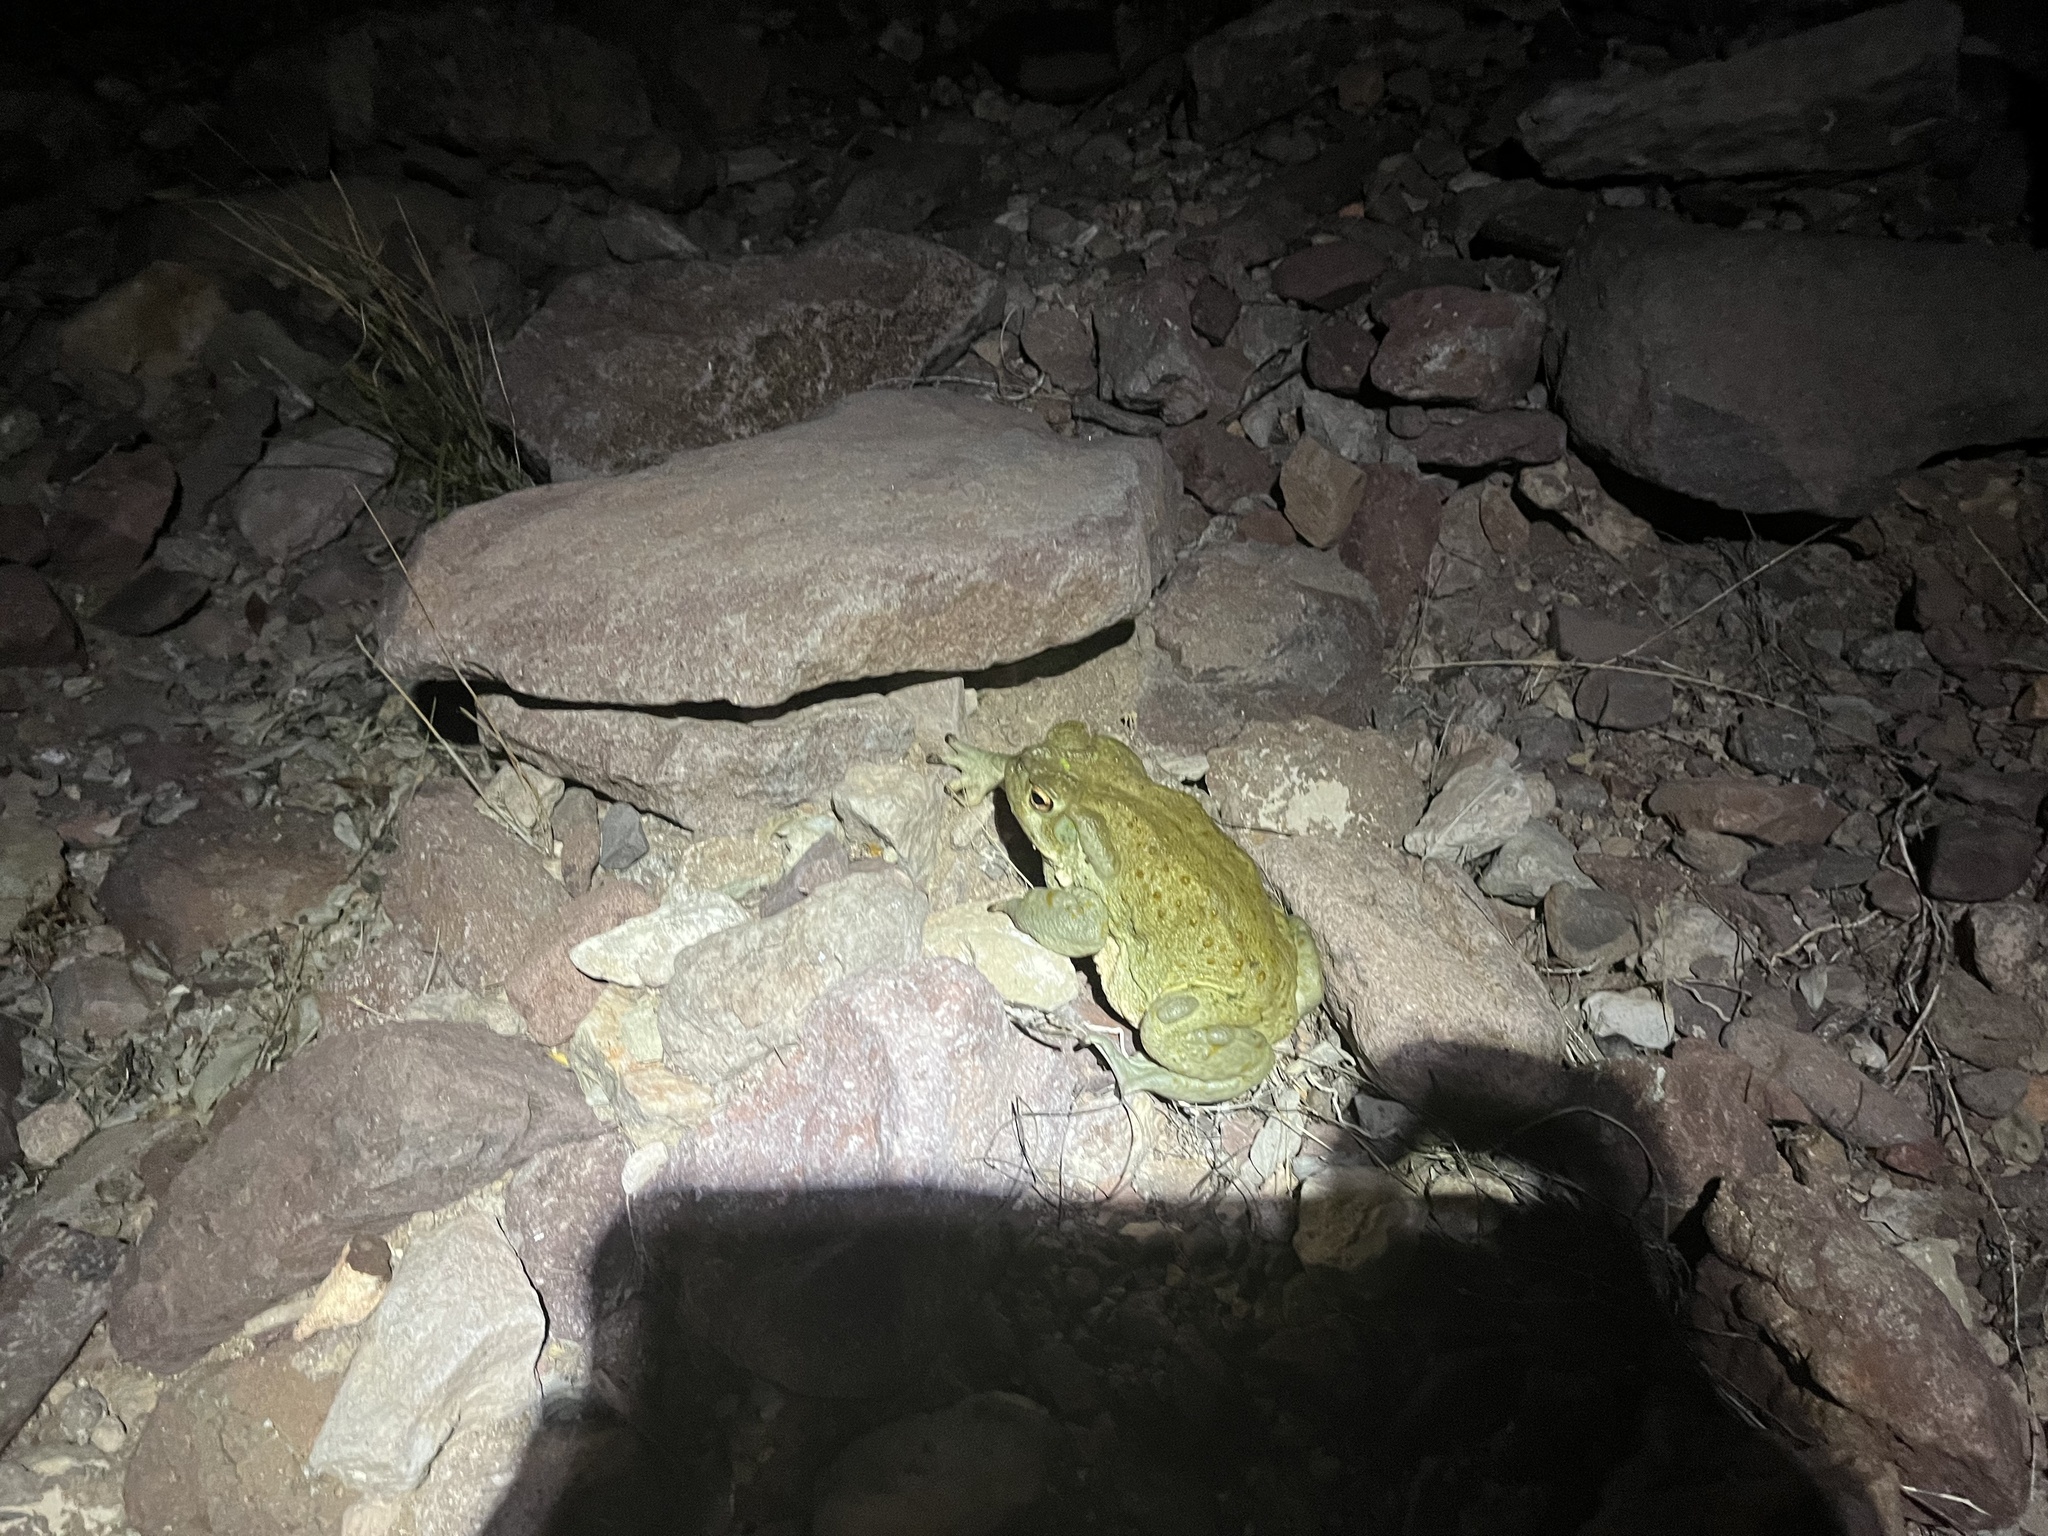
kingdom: Animalia
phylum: Chordata
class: Amphibia
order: Anura
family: Bufonidae
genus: Incilius
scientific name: Incilius alvarius
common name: Sonoran desert toad
